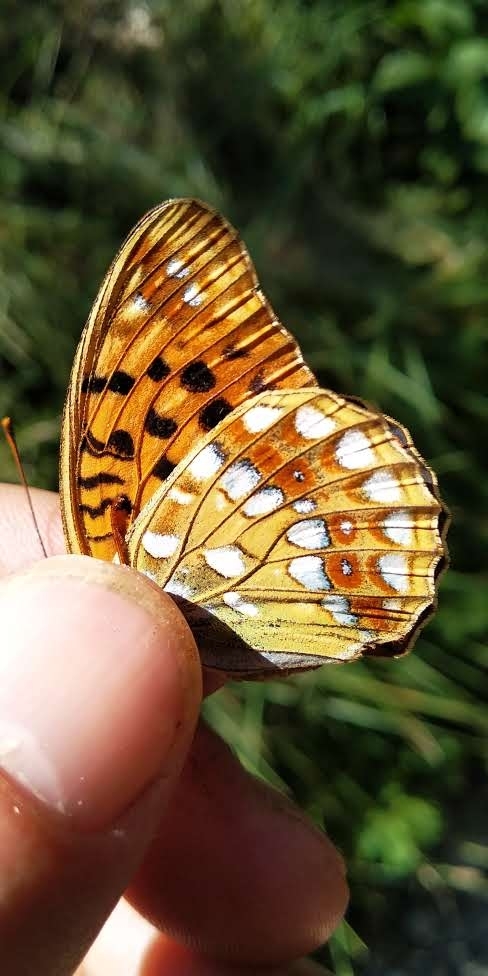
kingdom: Animalia
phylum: Arthropoda
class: Insecta
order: Lepidoptera
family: Nymphalidae
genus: Fabriciana
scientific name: Fabriciana adippe
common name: High brown fritillary
